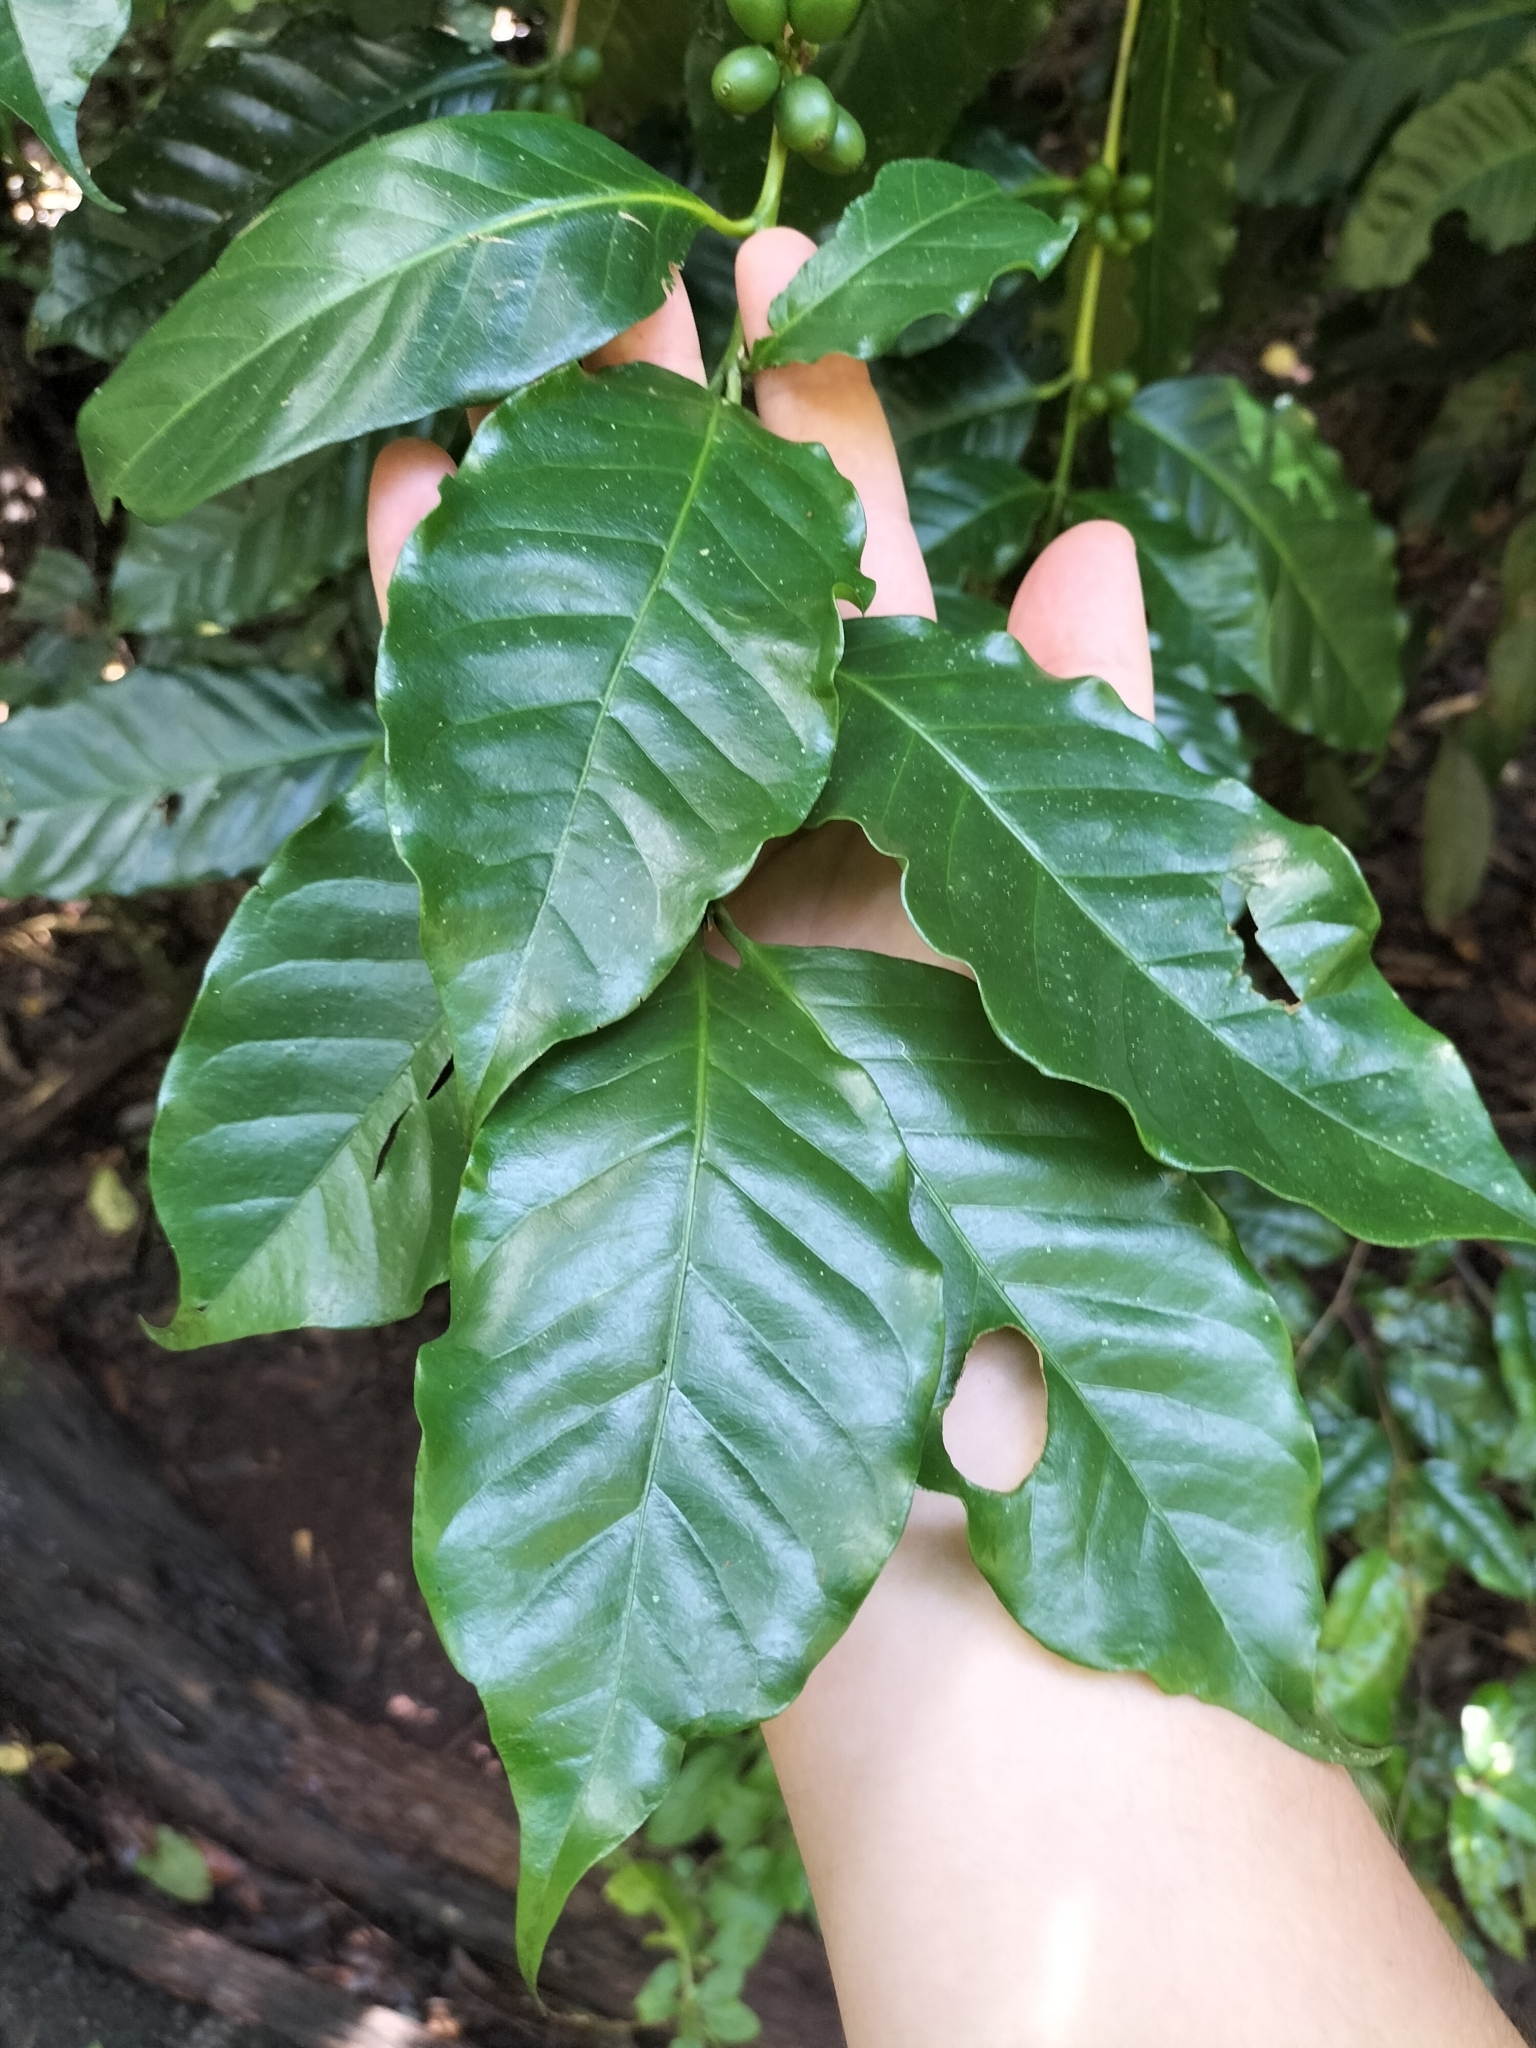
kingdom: Plantae
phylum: Tracheophyta
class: Magnoliopsida
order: Gentianales
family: Rubiaceae
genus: Coffea
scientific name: Coffea arabica
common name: Coffee
